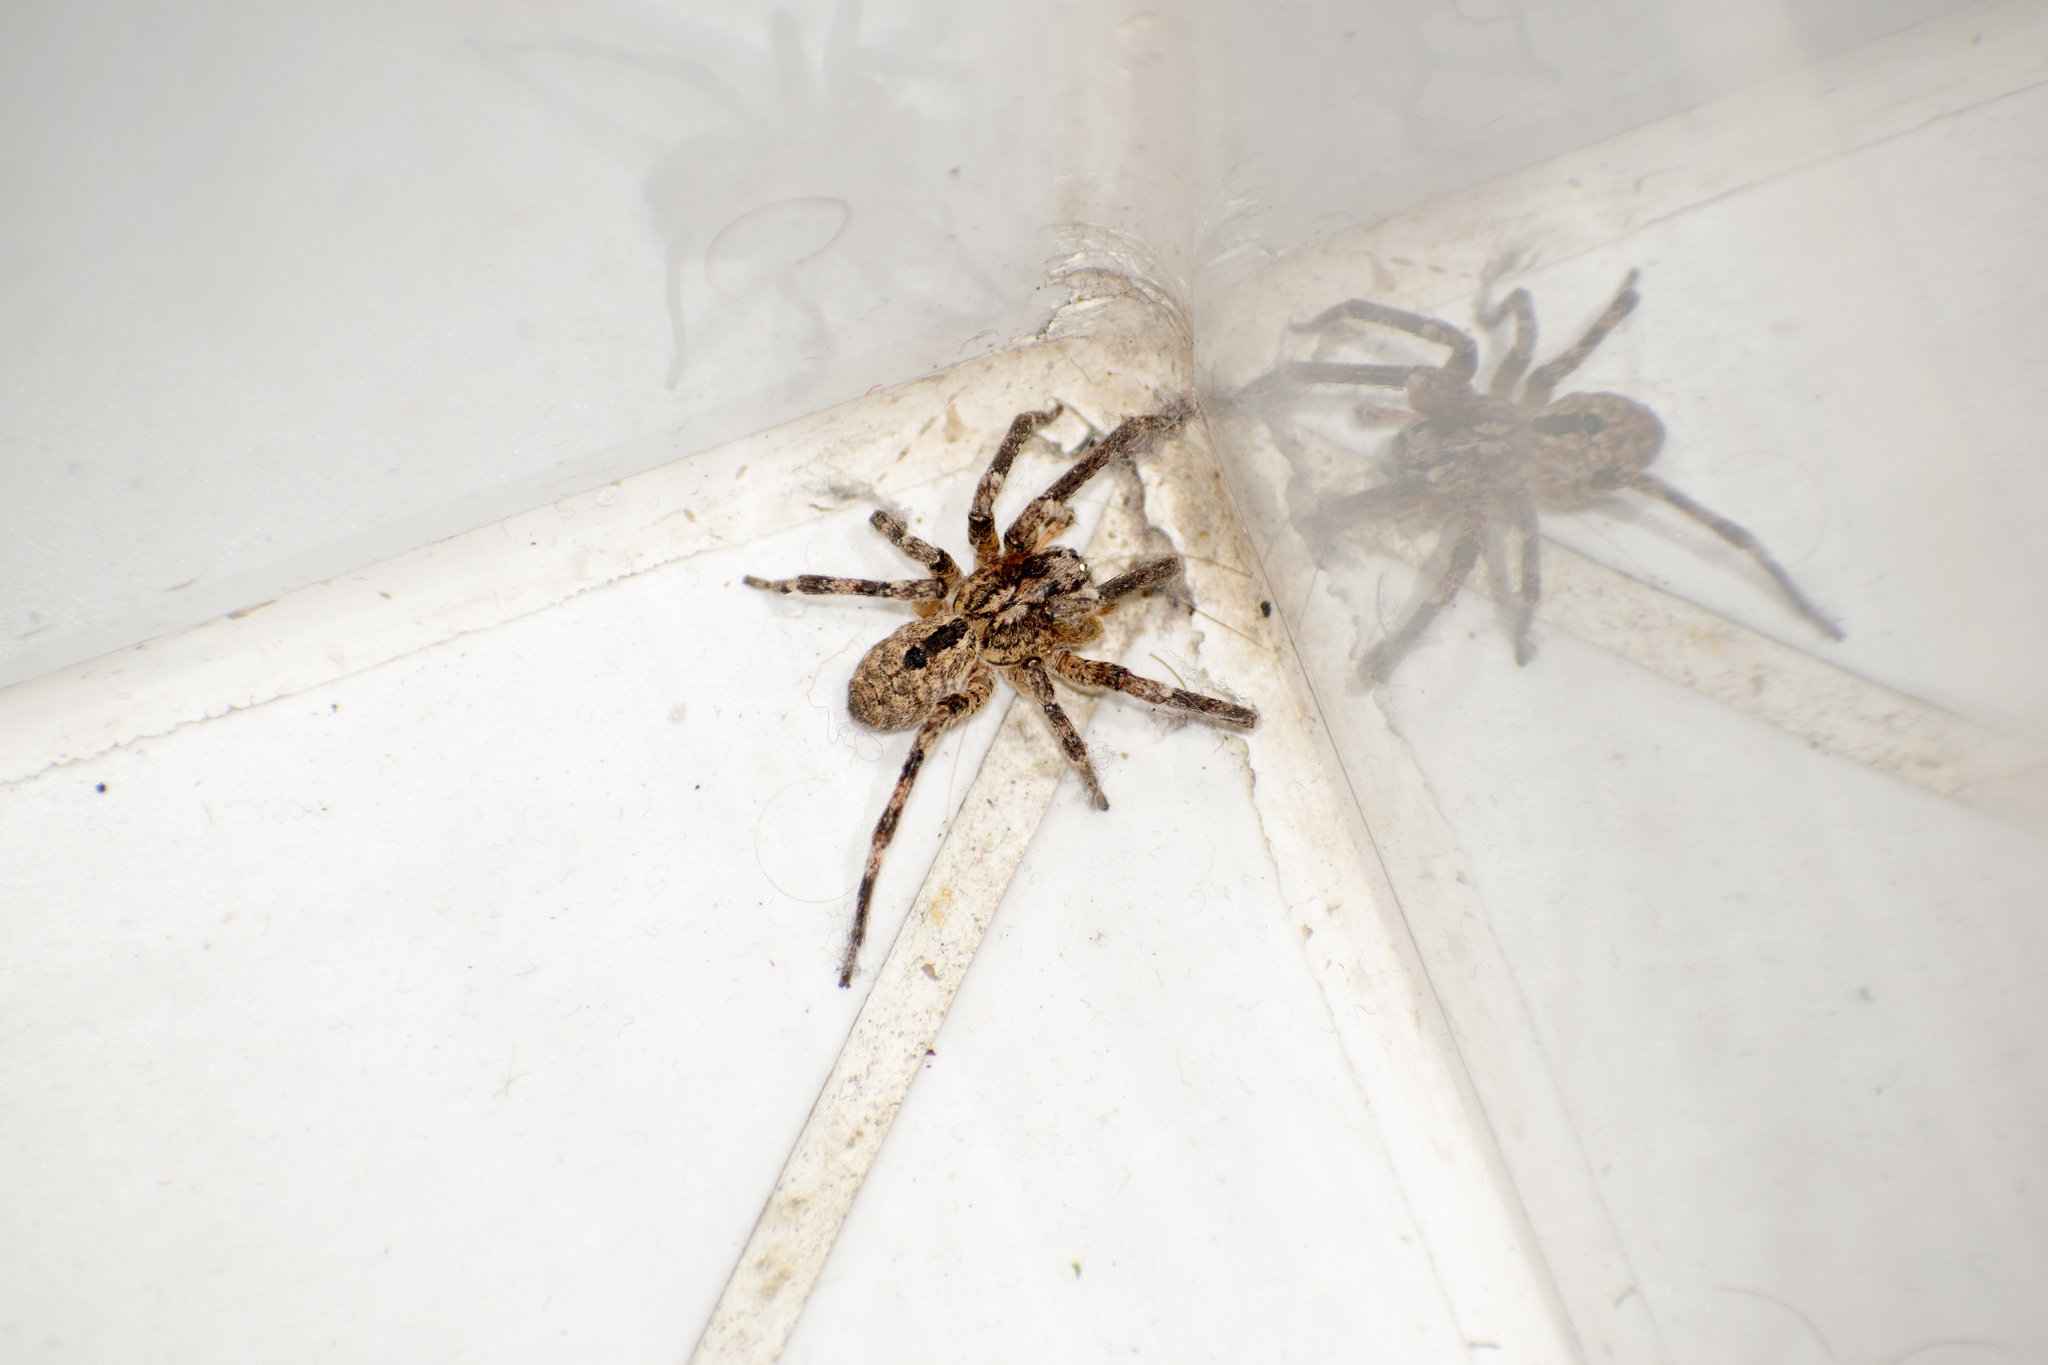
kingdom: Animalia
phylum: Arthropoda
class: Arachnida
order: Araneae
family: Zoropsidae
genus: Zoropsis
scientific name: Zoropsis spinimana
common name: Zoropsid spider
